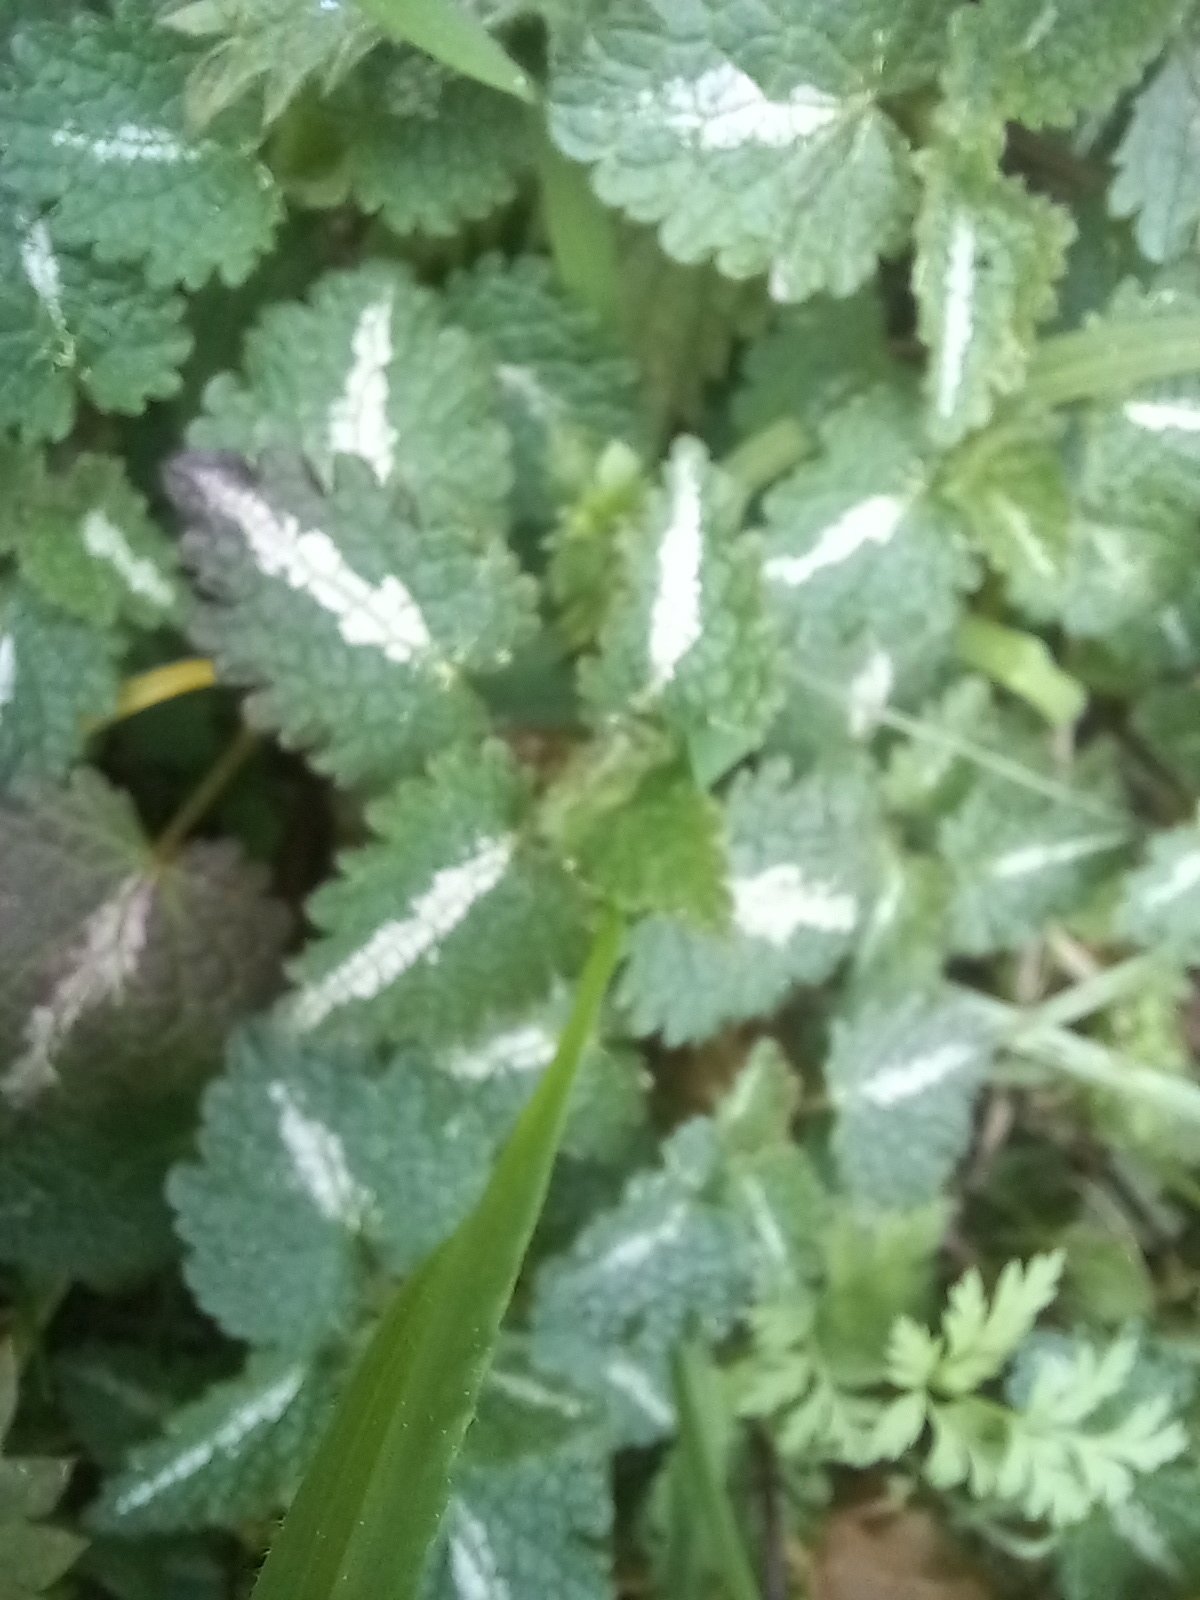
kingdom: Plantae
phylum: Tracheophyta
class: Magnoliopsida
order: Lamiales
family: Lamiaceae
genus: Lamium
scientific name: Lamium maculatum
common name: Spotted dead-nettle
